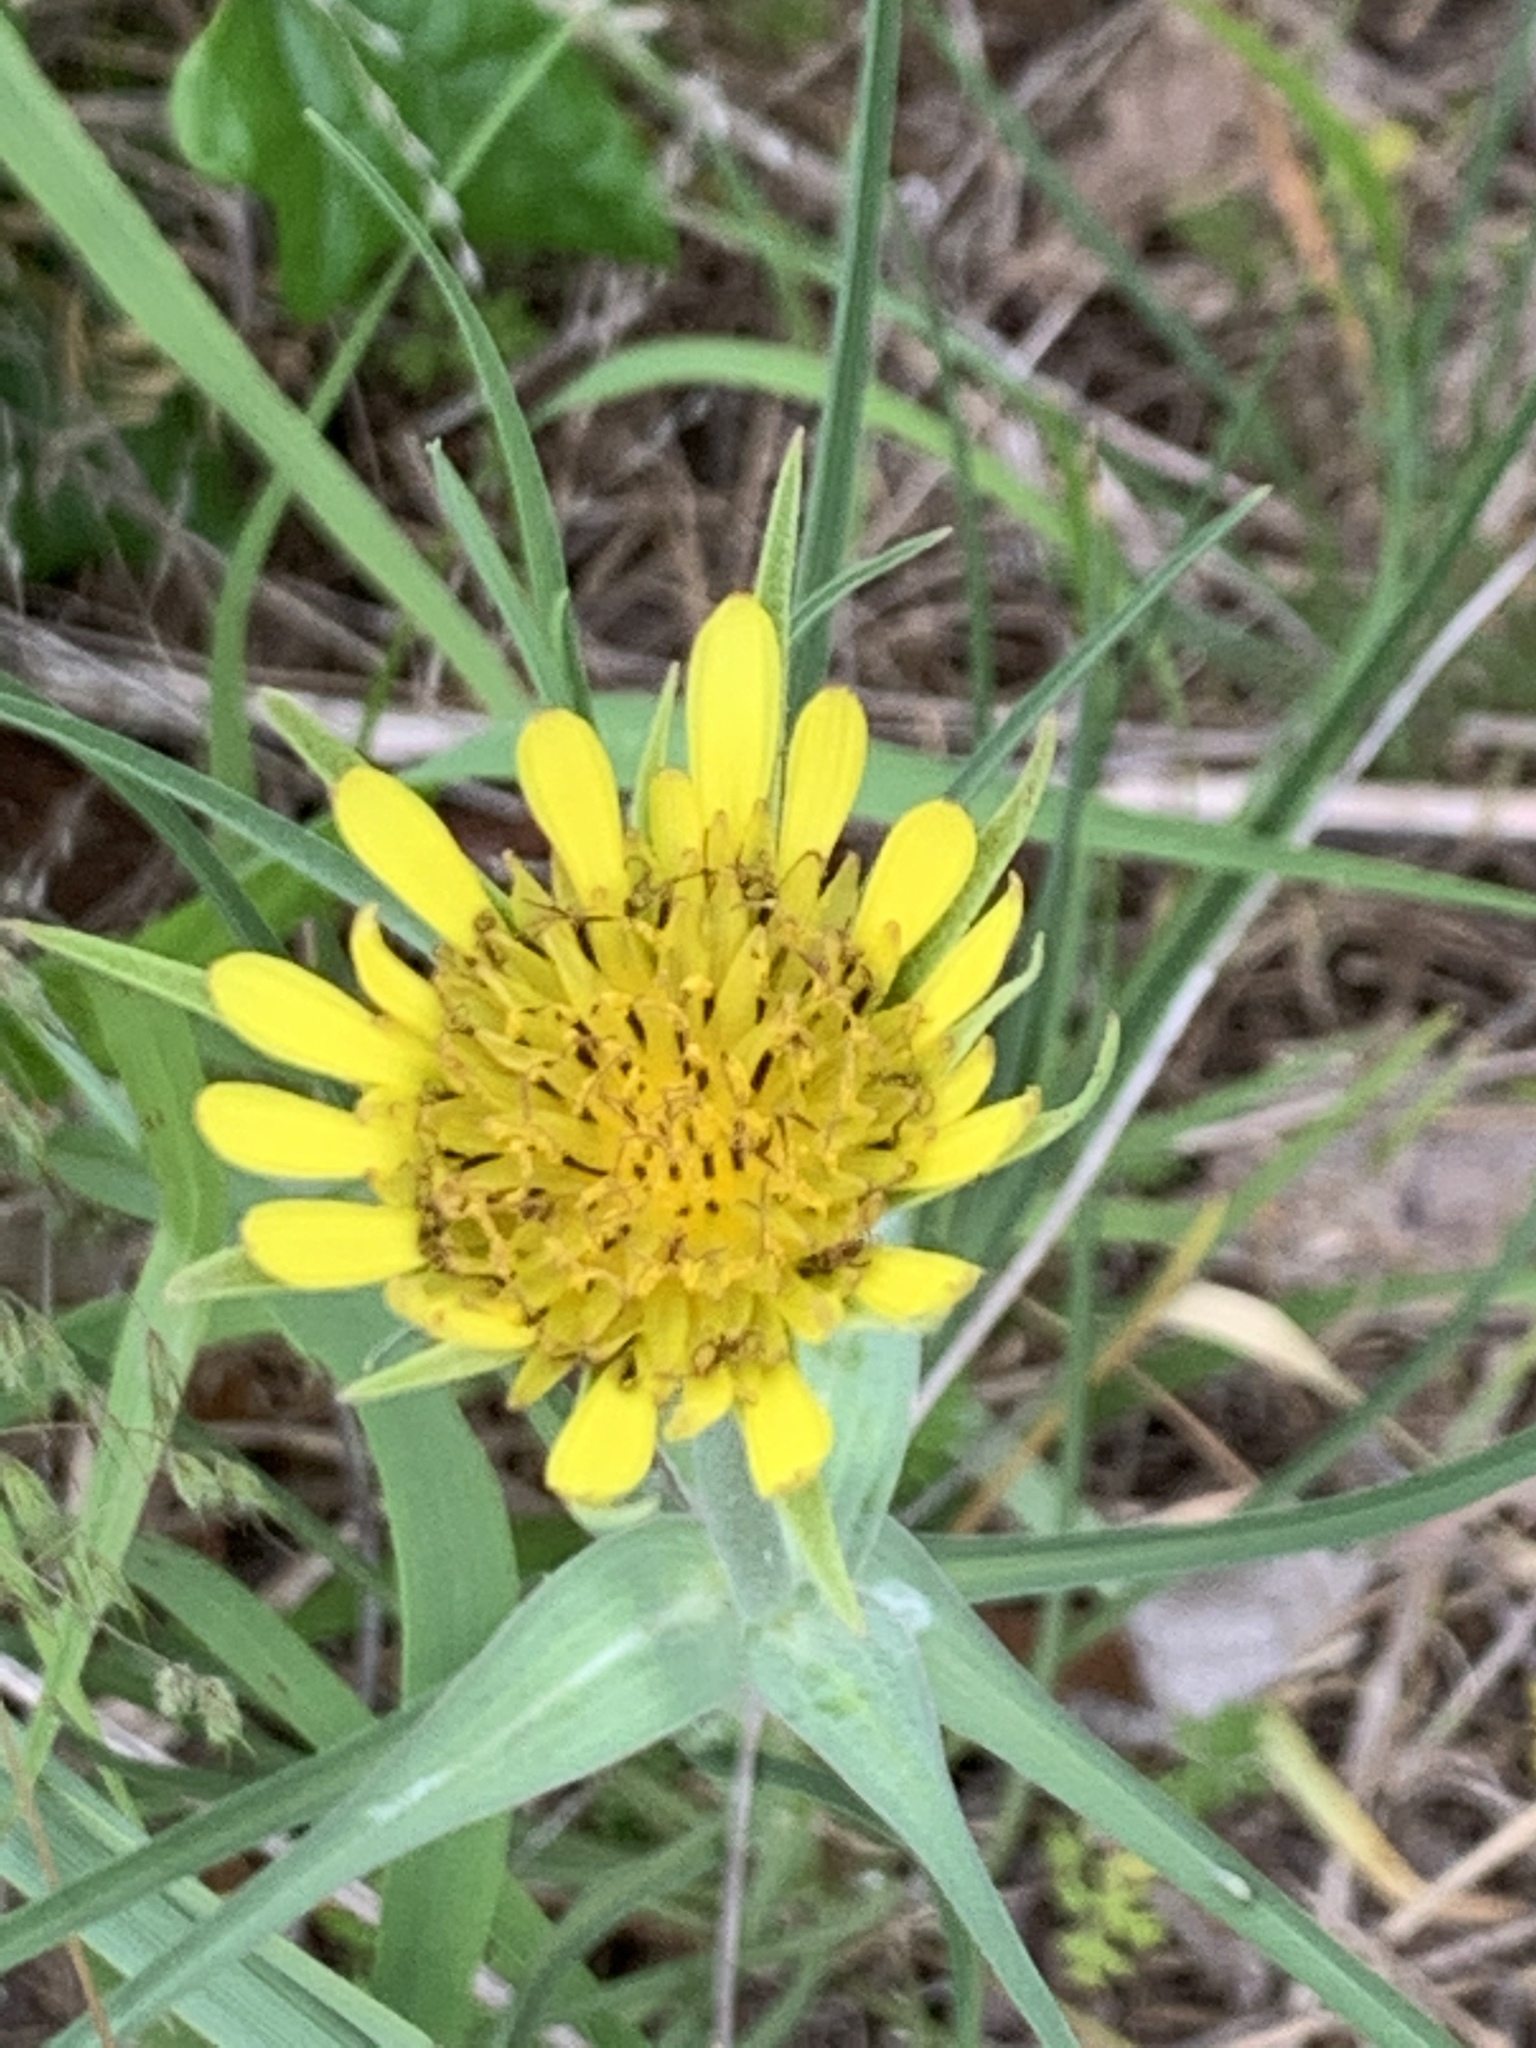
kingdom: Plantae
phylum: Tracheophyta
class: Magnoliopsida
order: Asterales
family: Asteraceae
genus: Tragopogon
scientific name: Tragopogon dubius
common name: Yellow salsify
